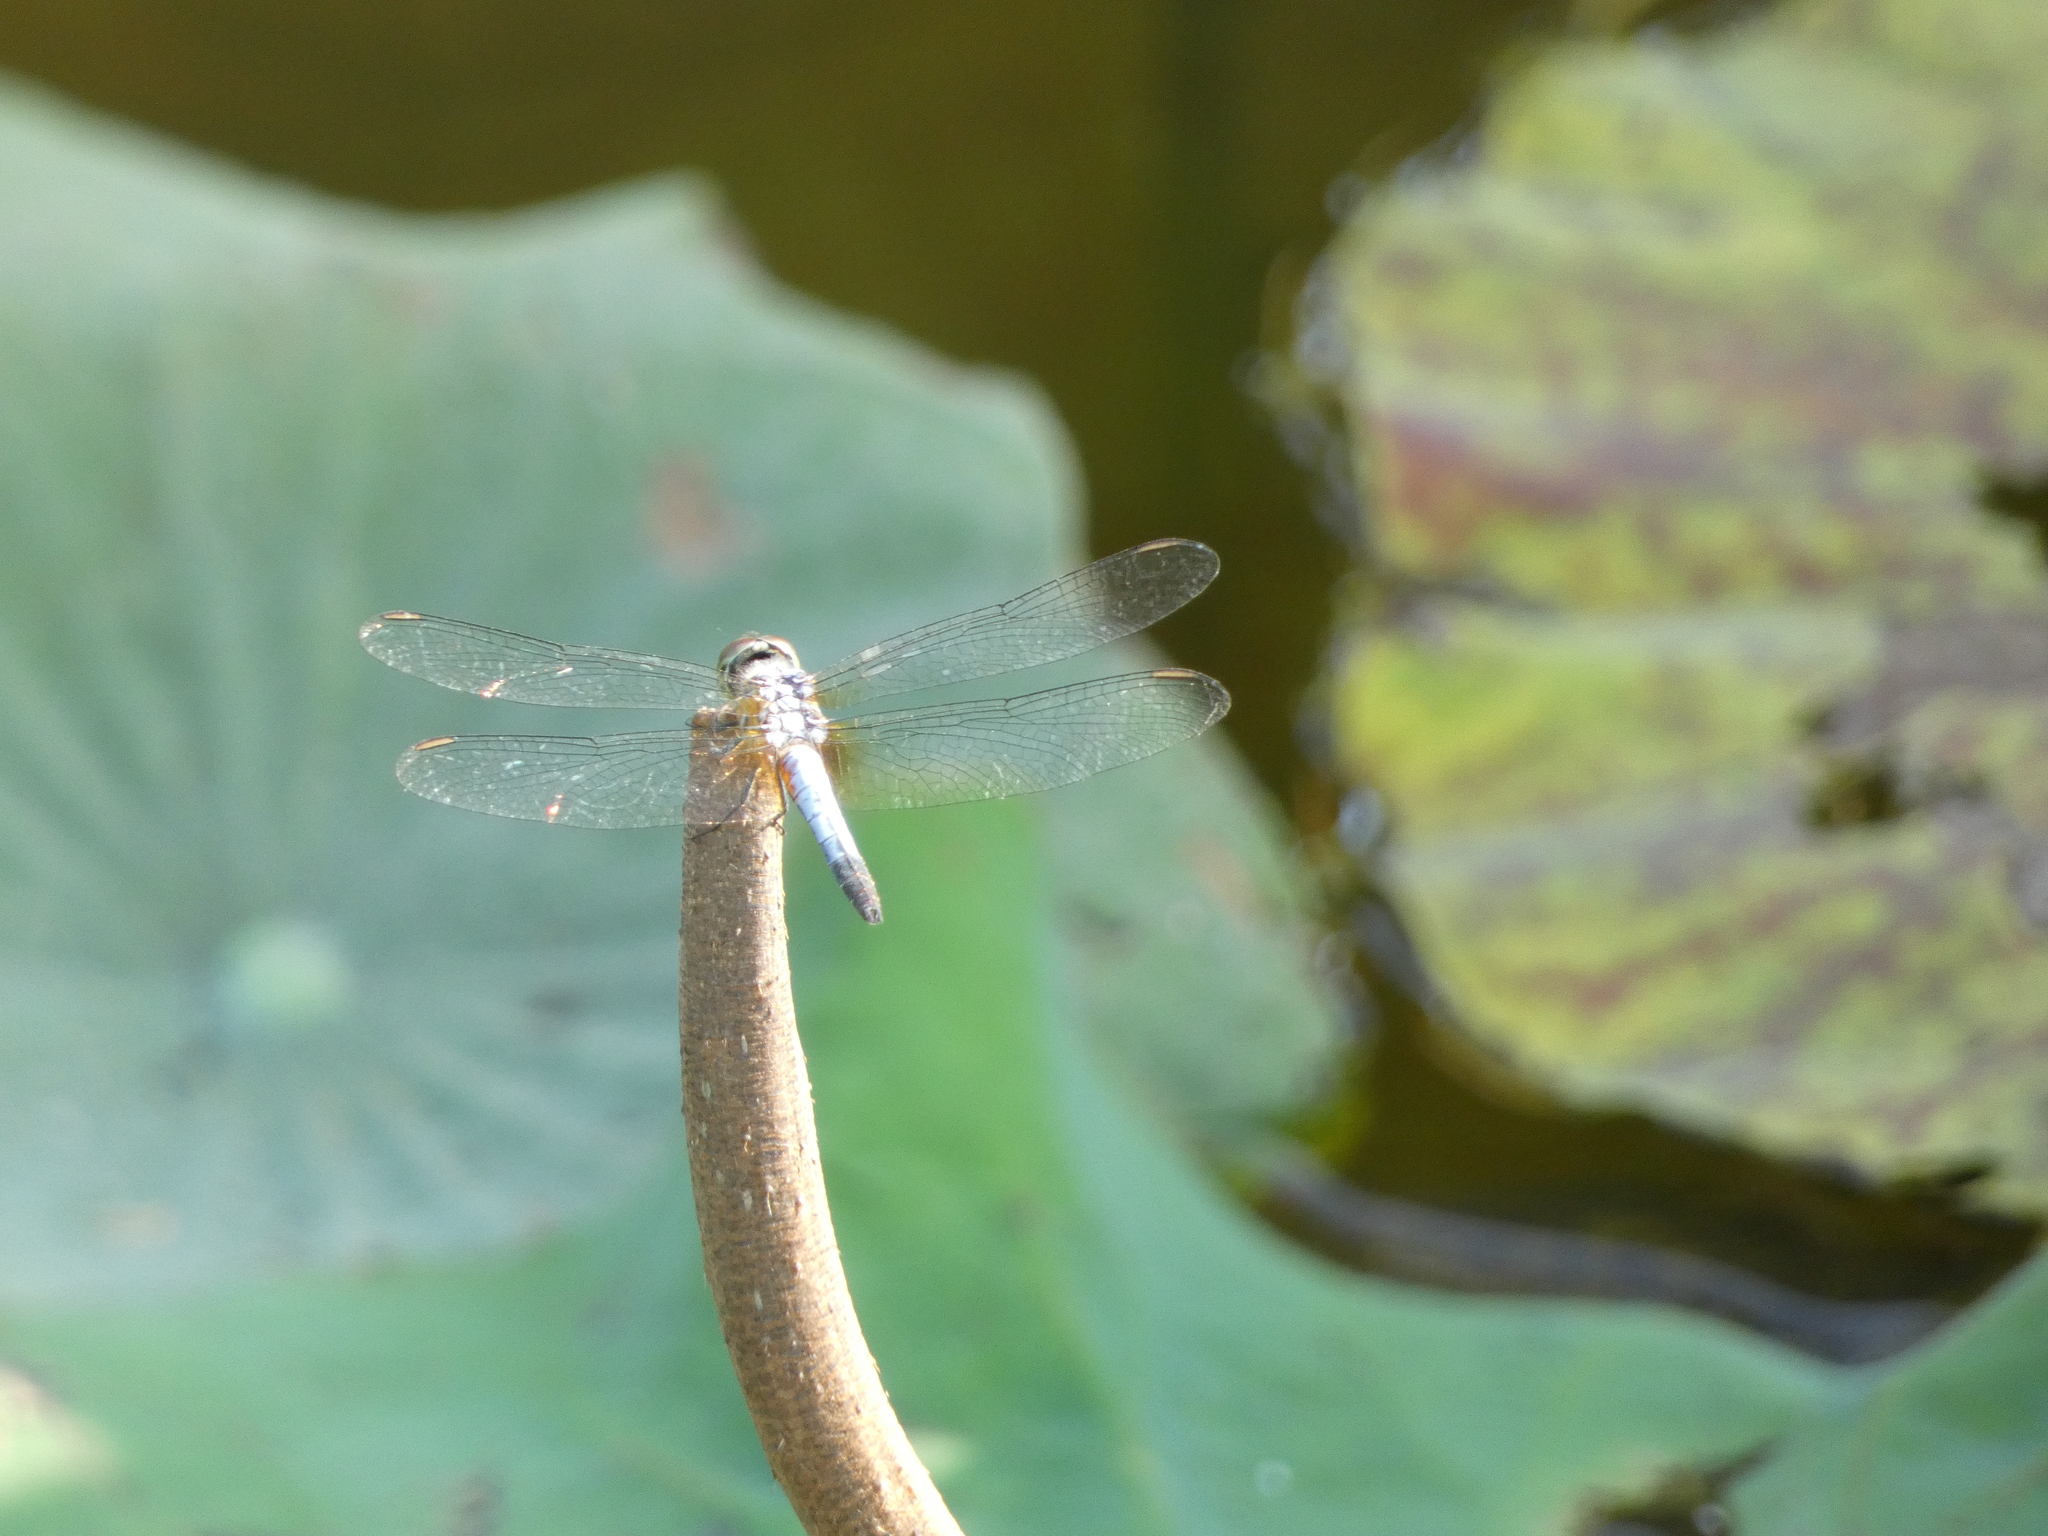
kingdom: Animalia
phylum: Arthropoda
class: Insecta
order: Odonata
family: Libellulidae
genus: Brachydiplax
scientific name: Brachydiplax chalybea
